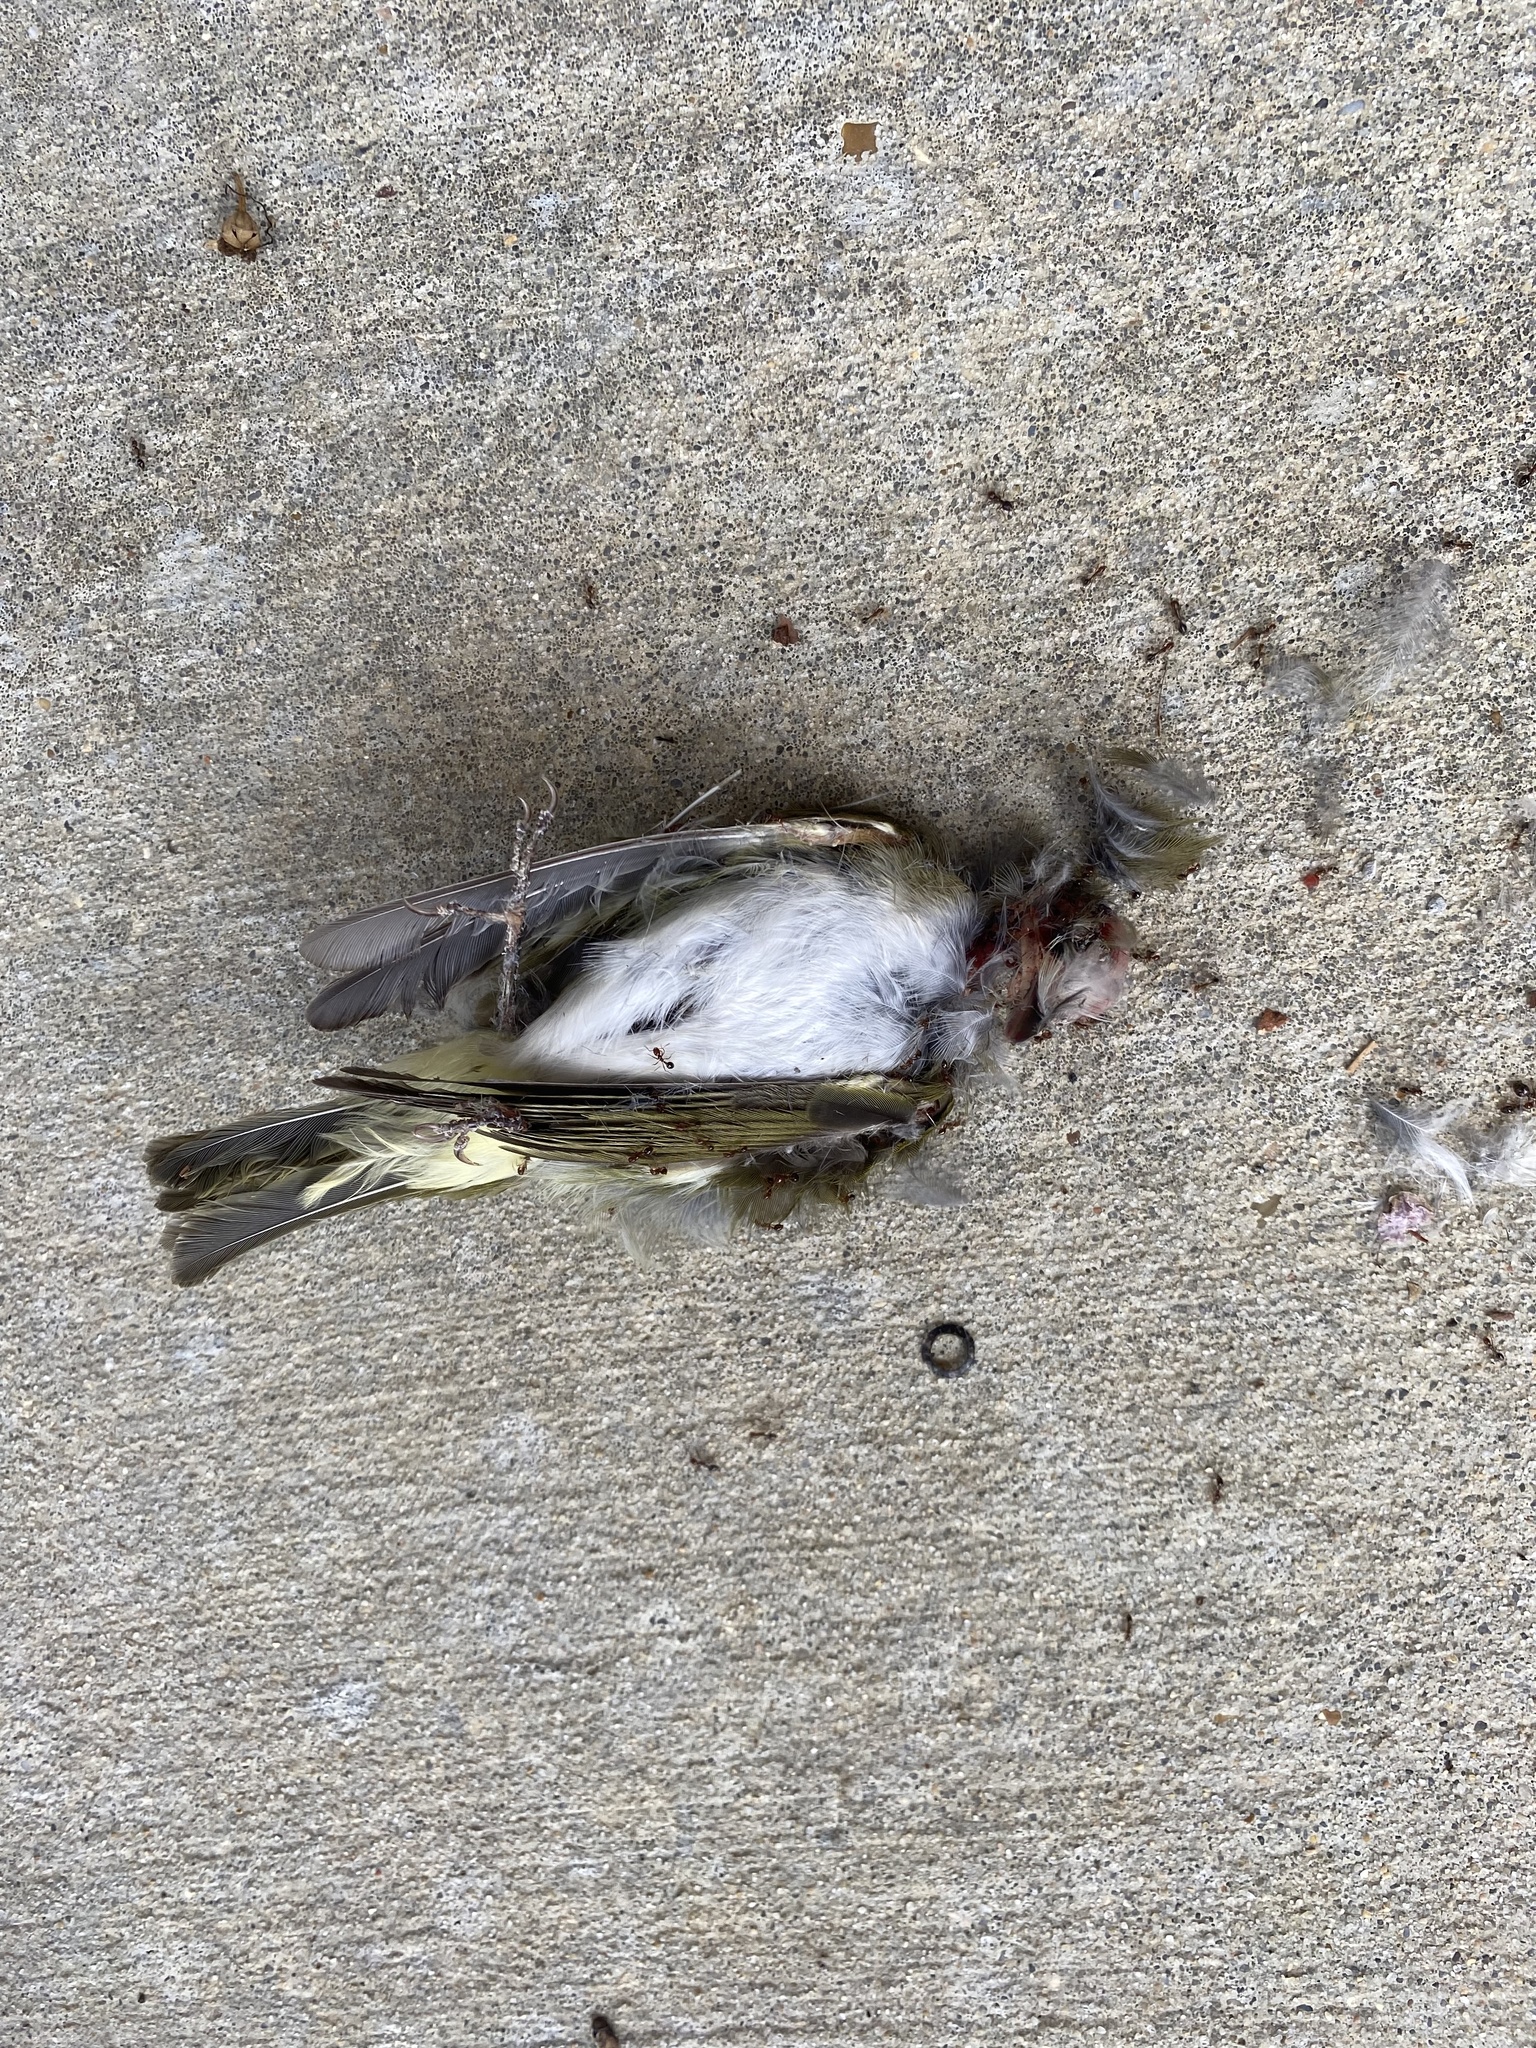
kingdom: Animalia
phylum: Chordata
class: Aves
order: Passeriformes
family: Vireonidae
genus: Vireo
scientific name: Vireo olivaceus
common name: Red-eyed vireo
